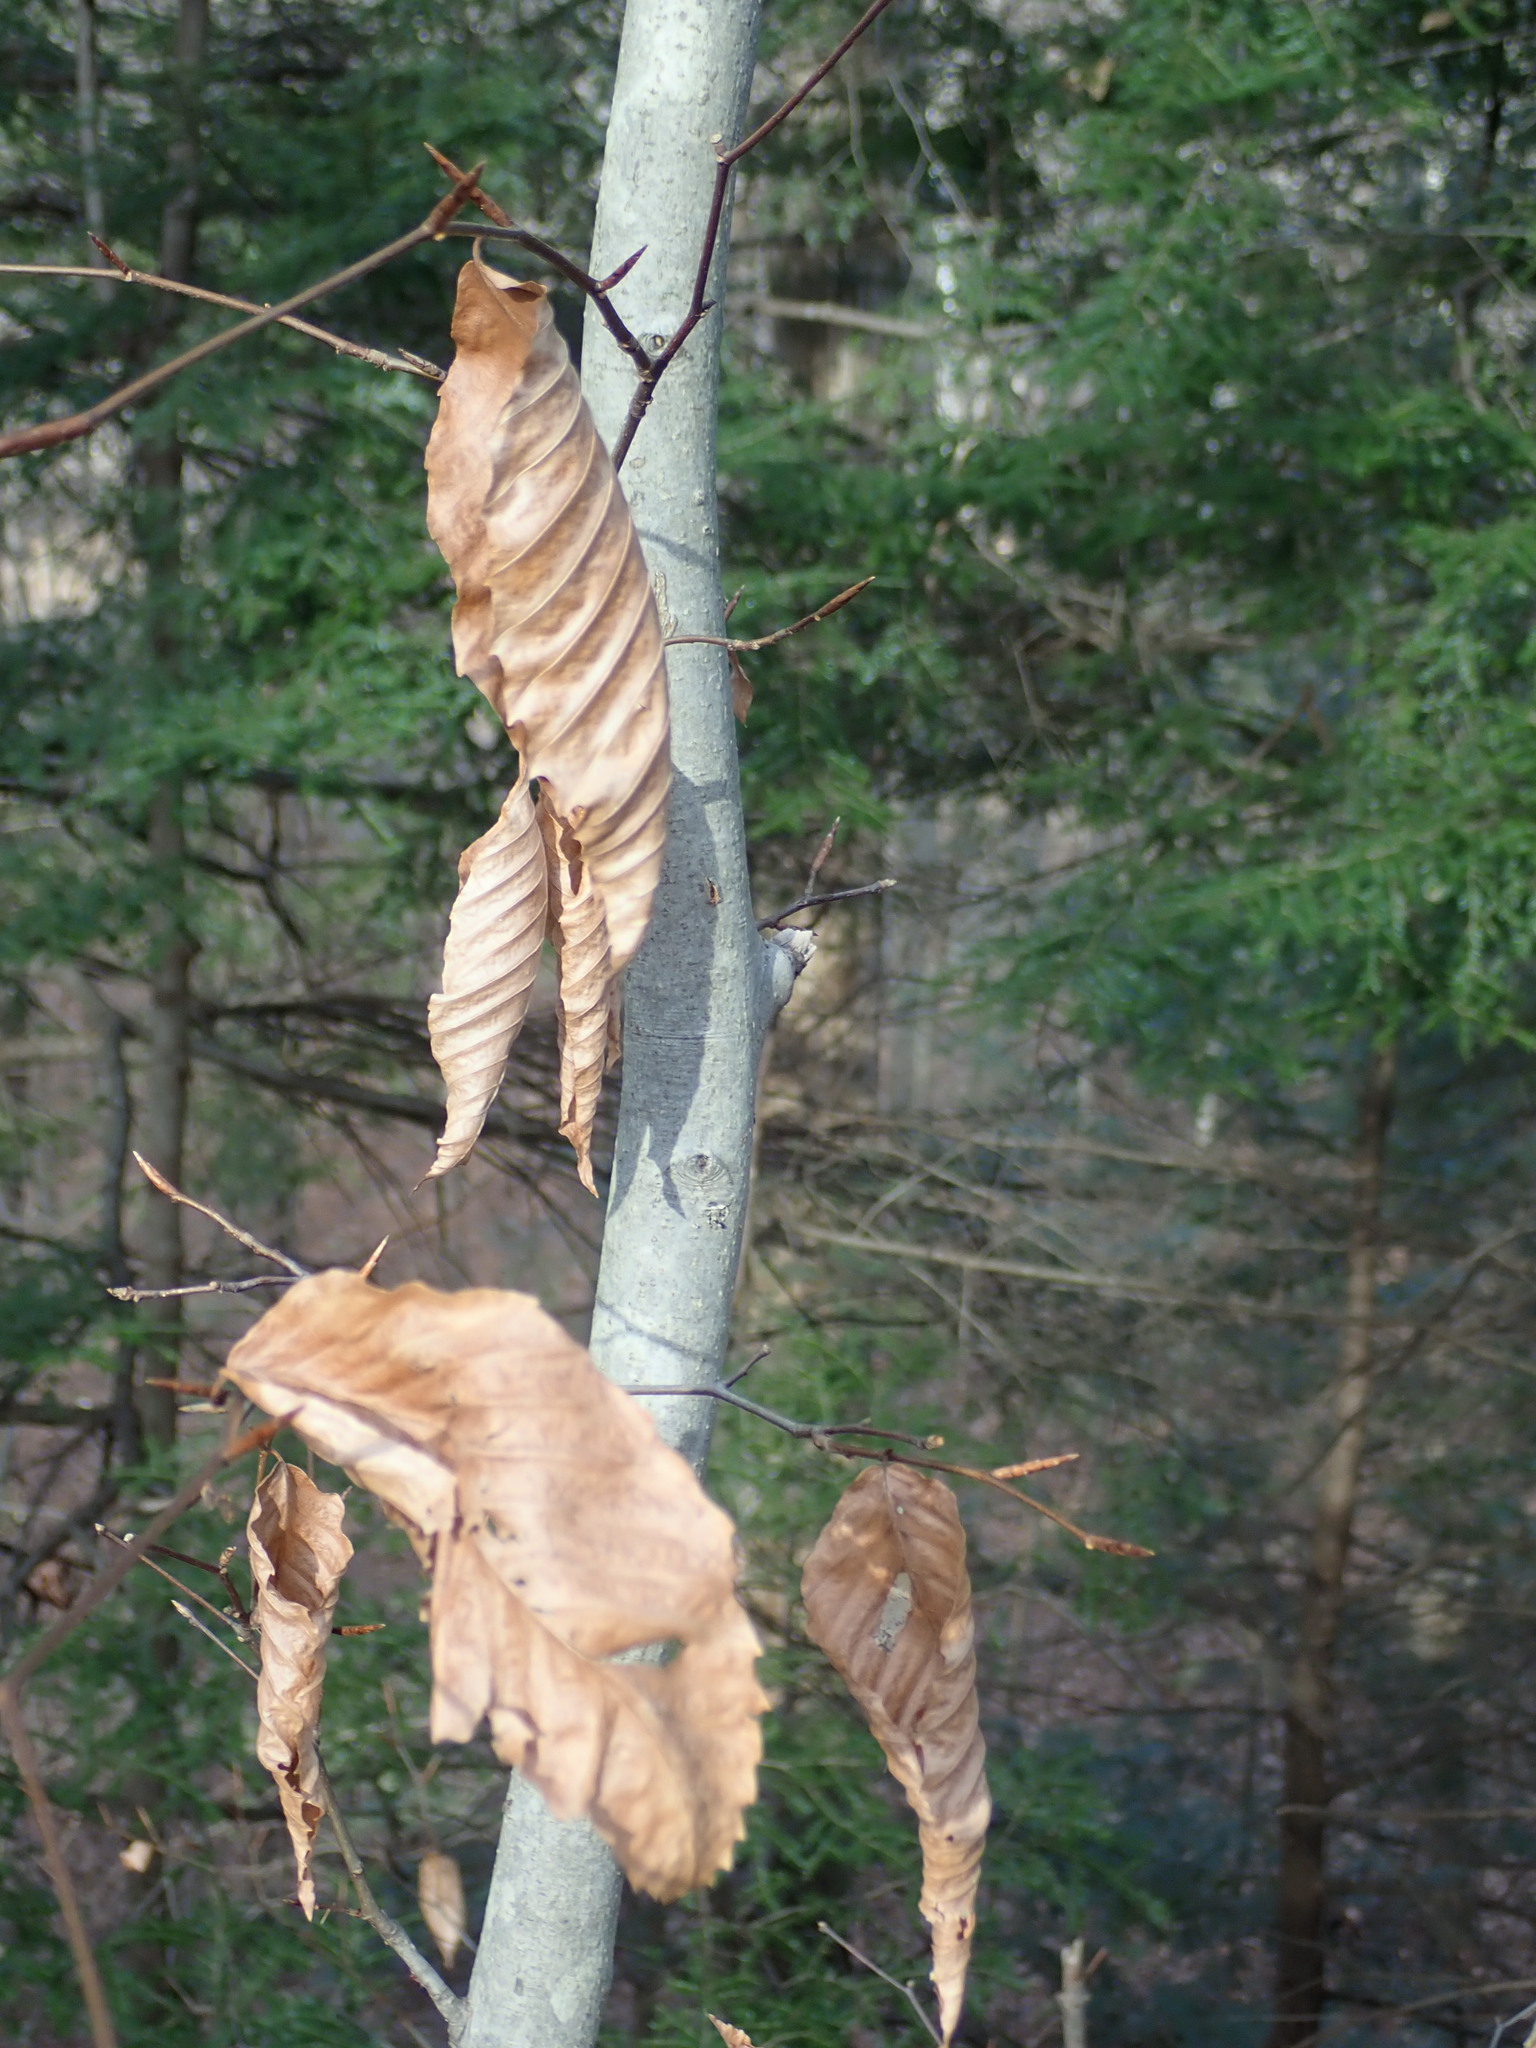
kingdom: Plantae
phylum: Tracheophyta
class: Magnoliopsida
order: Fagales
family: Fagaceae
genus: Fagus
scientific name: Fagus grandifolia
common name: American beech
